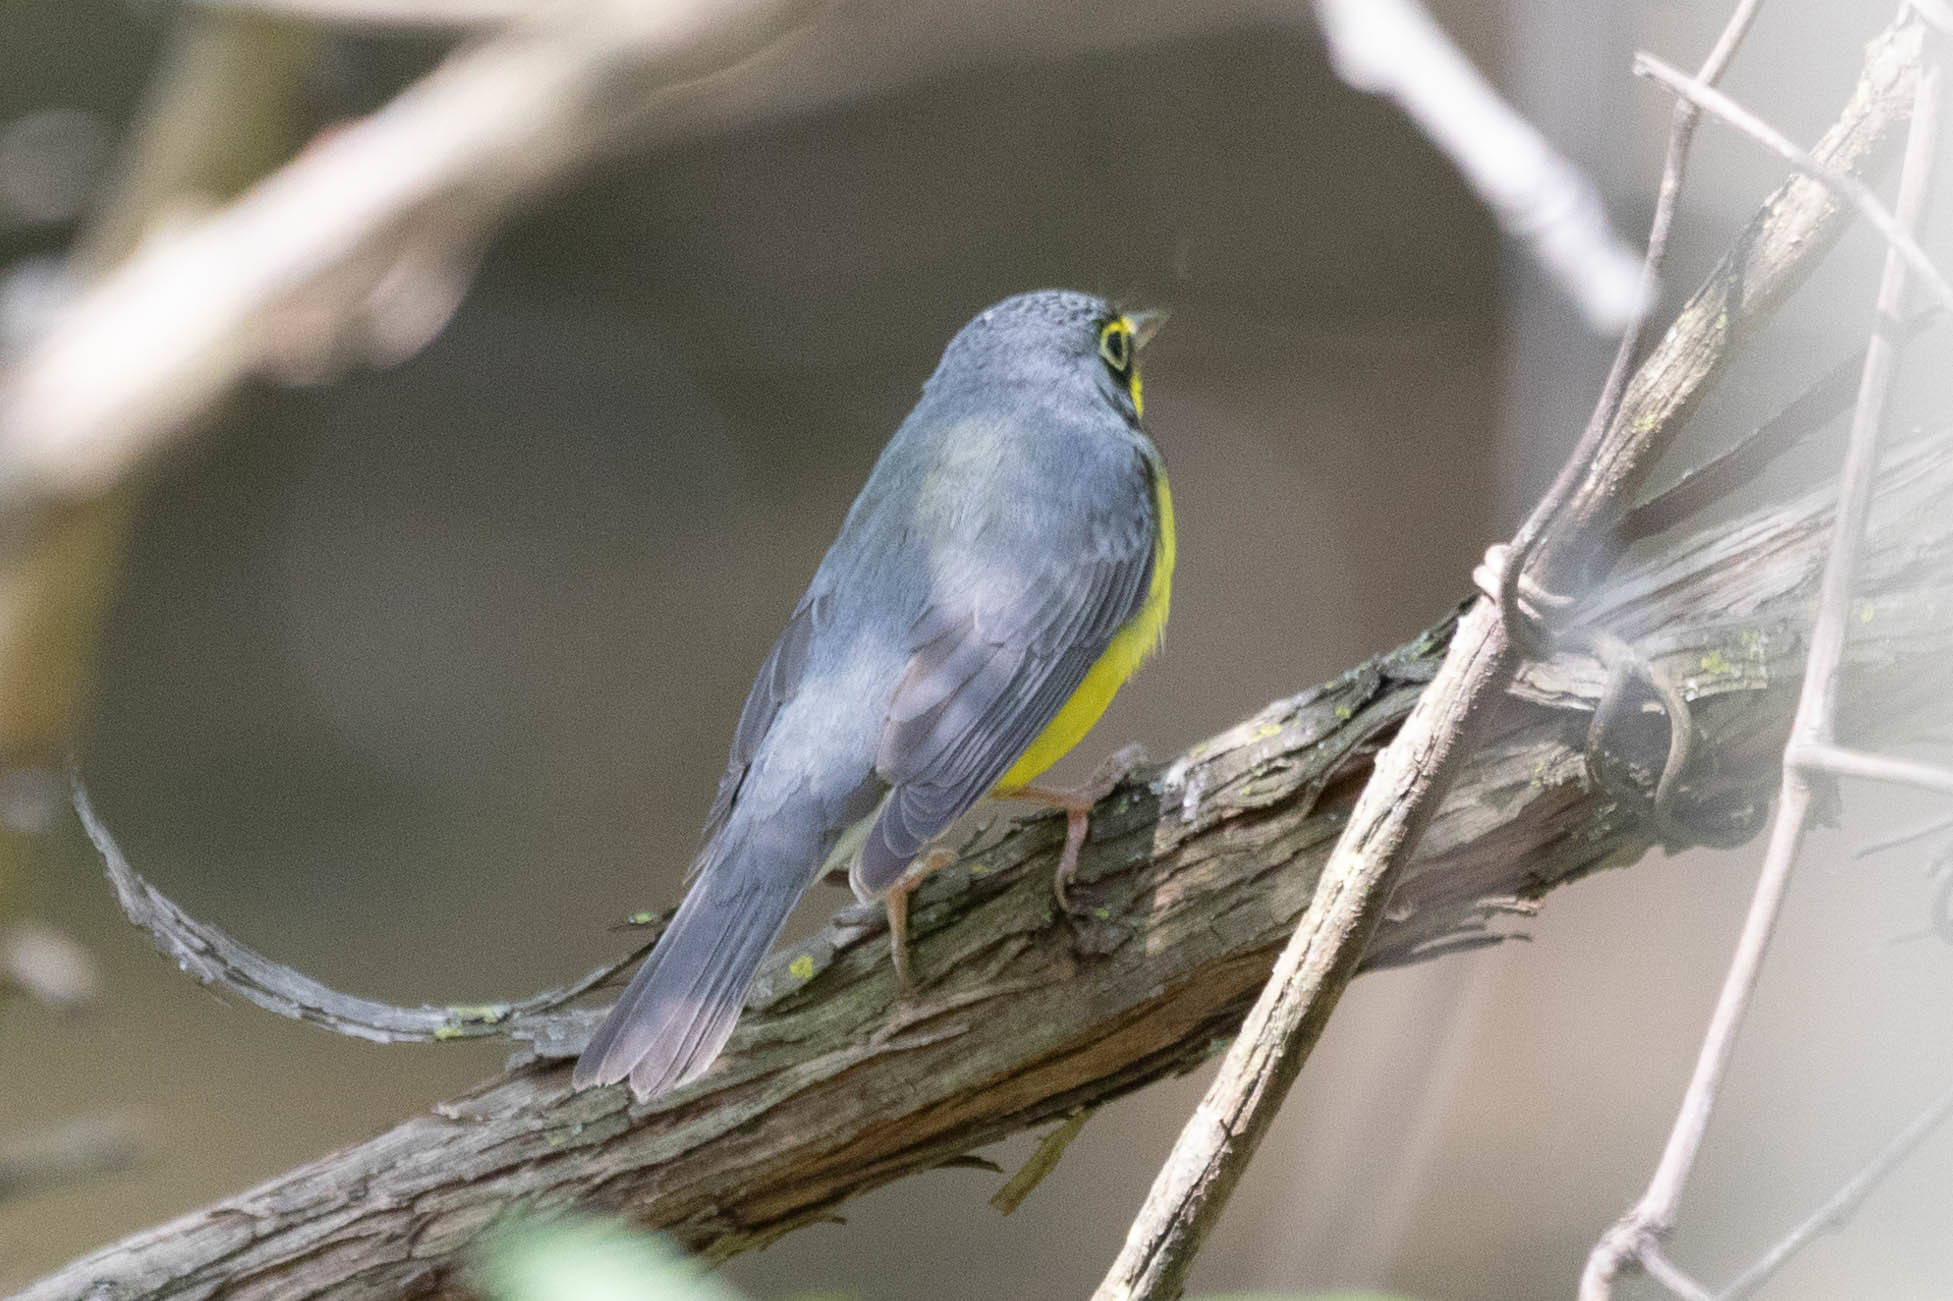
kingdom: Animalia
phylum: Chordata
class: Aves
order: Passeriformes
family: Parulidae
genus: Cardellina
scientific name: Cardellina canadensis
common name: Canada warbler
